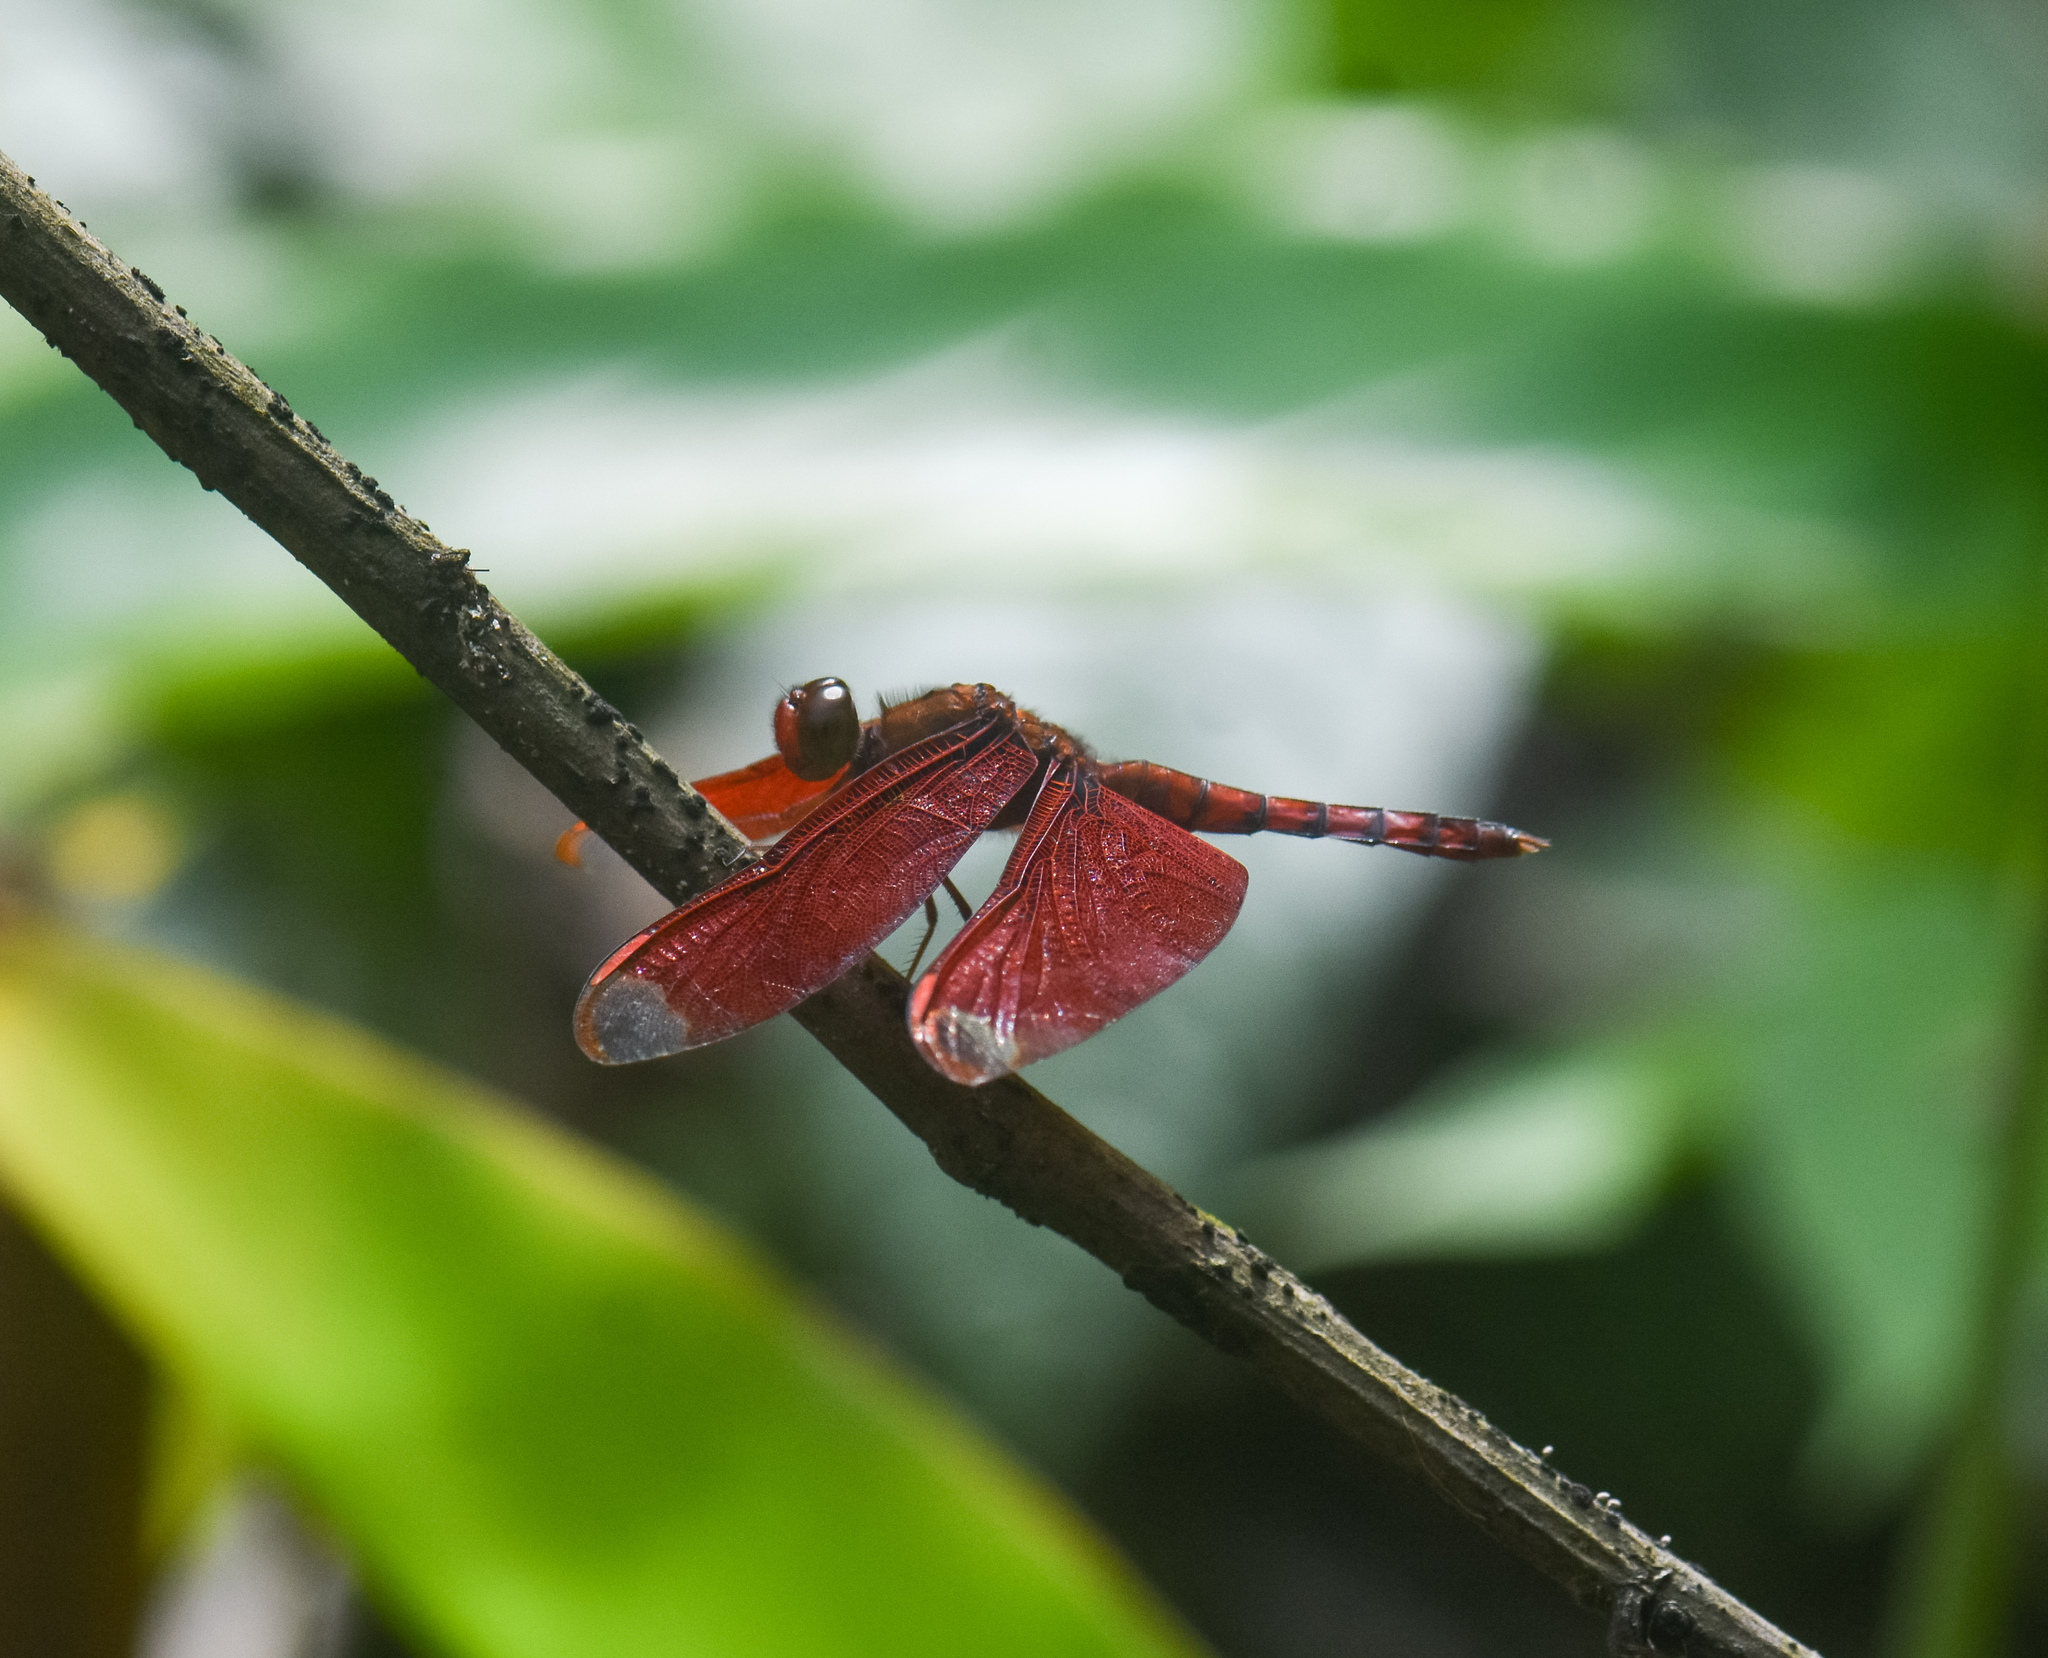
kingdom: Animalia
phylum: Arthropoda
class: Insecta
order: Odonata
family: Libellulidae
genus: Neurothemis
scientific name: Neurothemis fulvia
